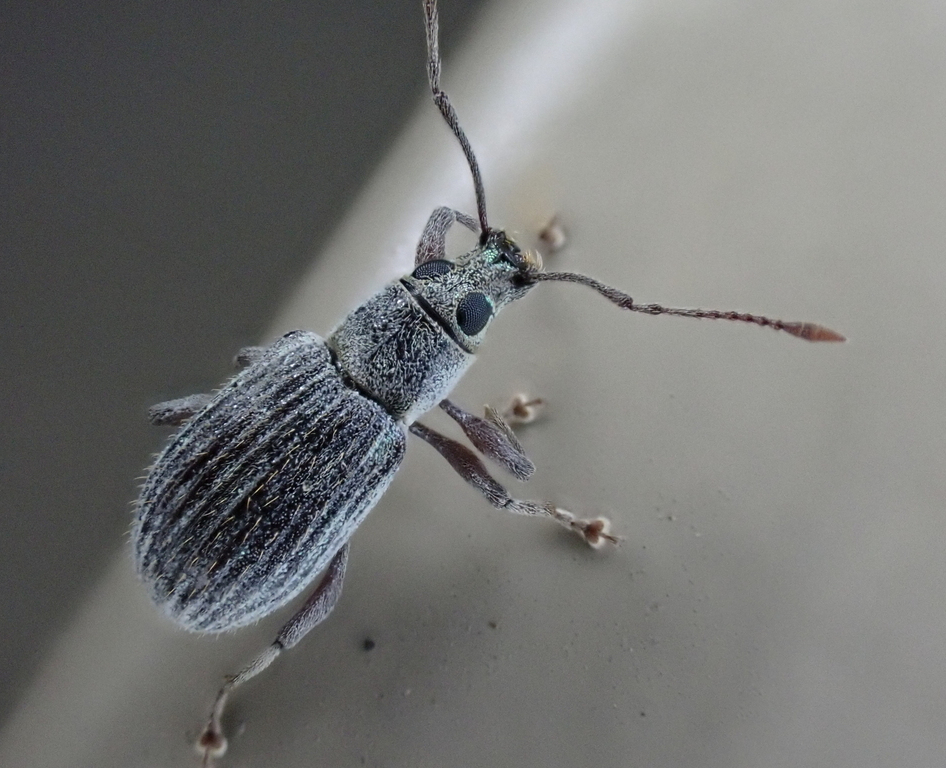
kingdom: Animalia
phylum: Arthropoda
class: Insecta
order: Coleoptera
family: Curculionidae
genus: Cyrtepistomus
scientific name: Cyrtepistomus castaneus
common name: Weevil
